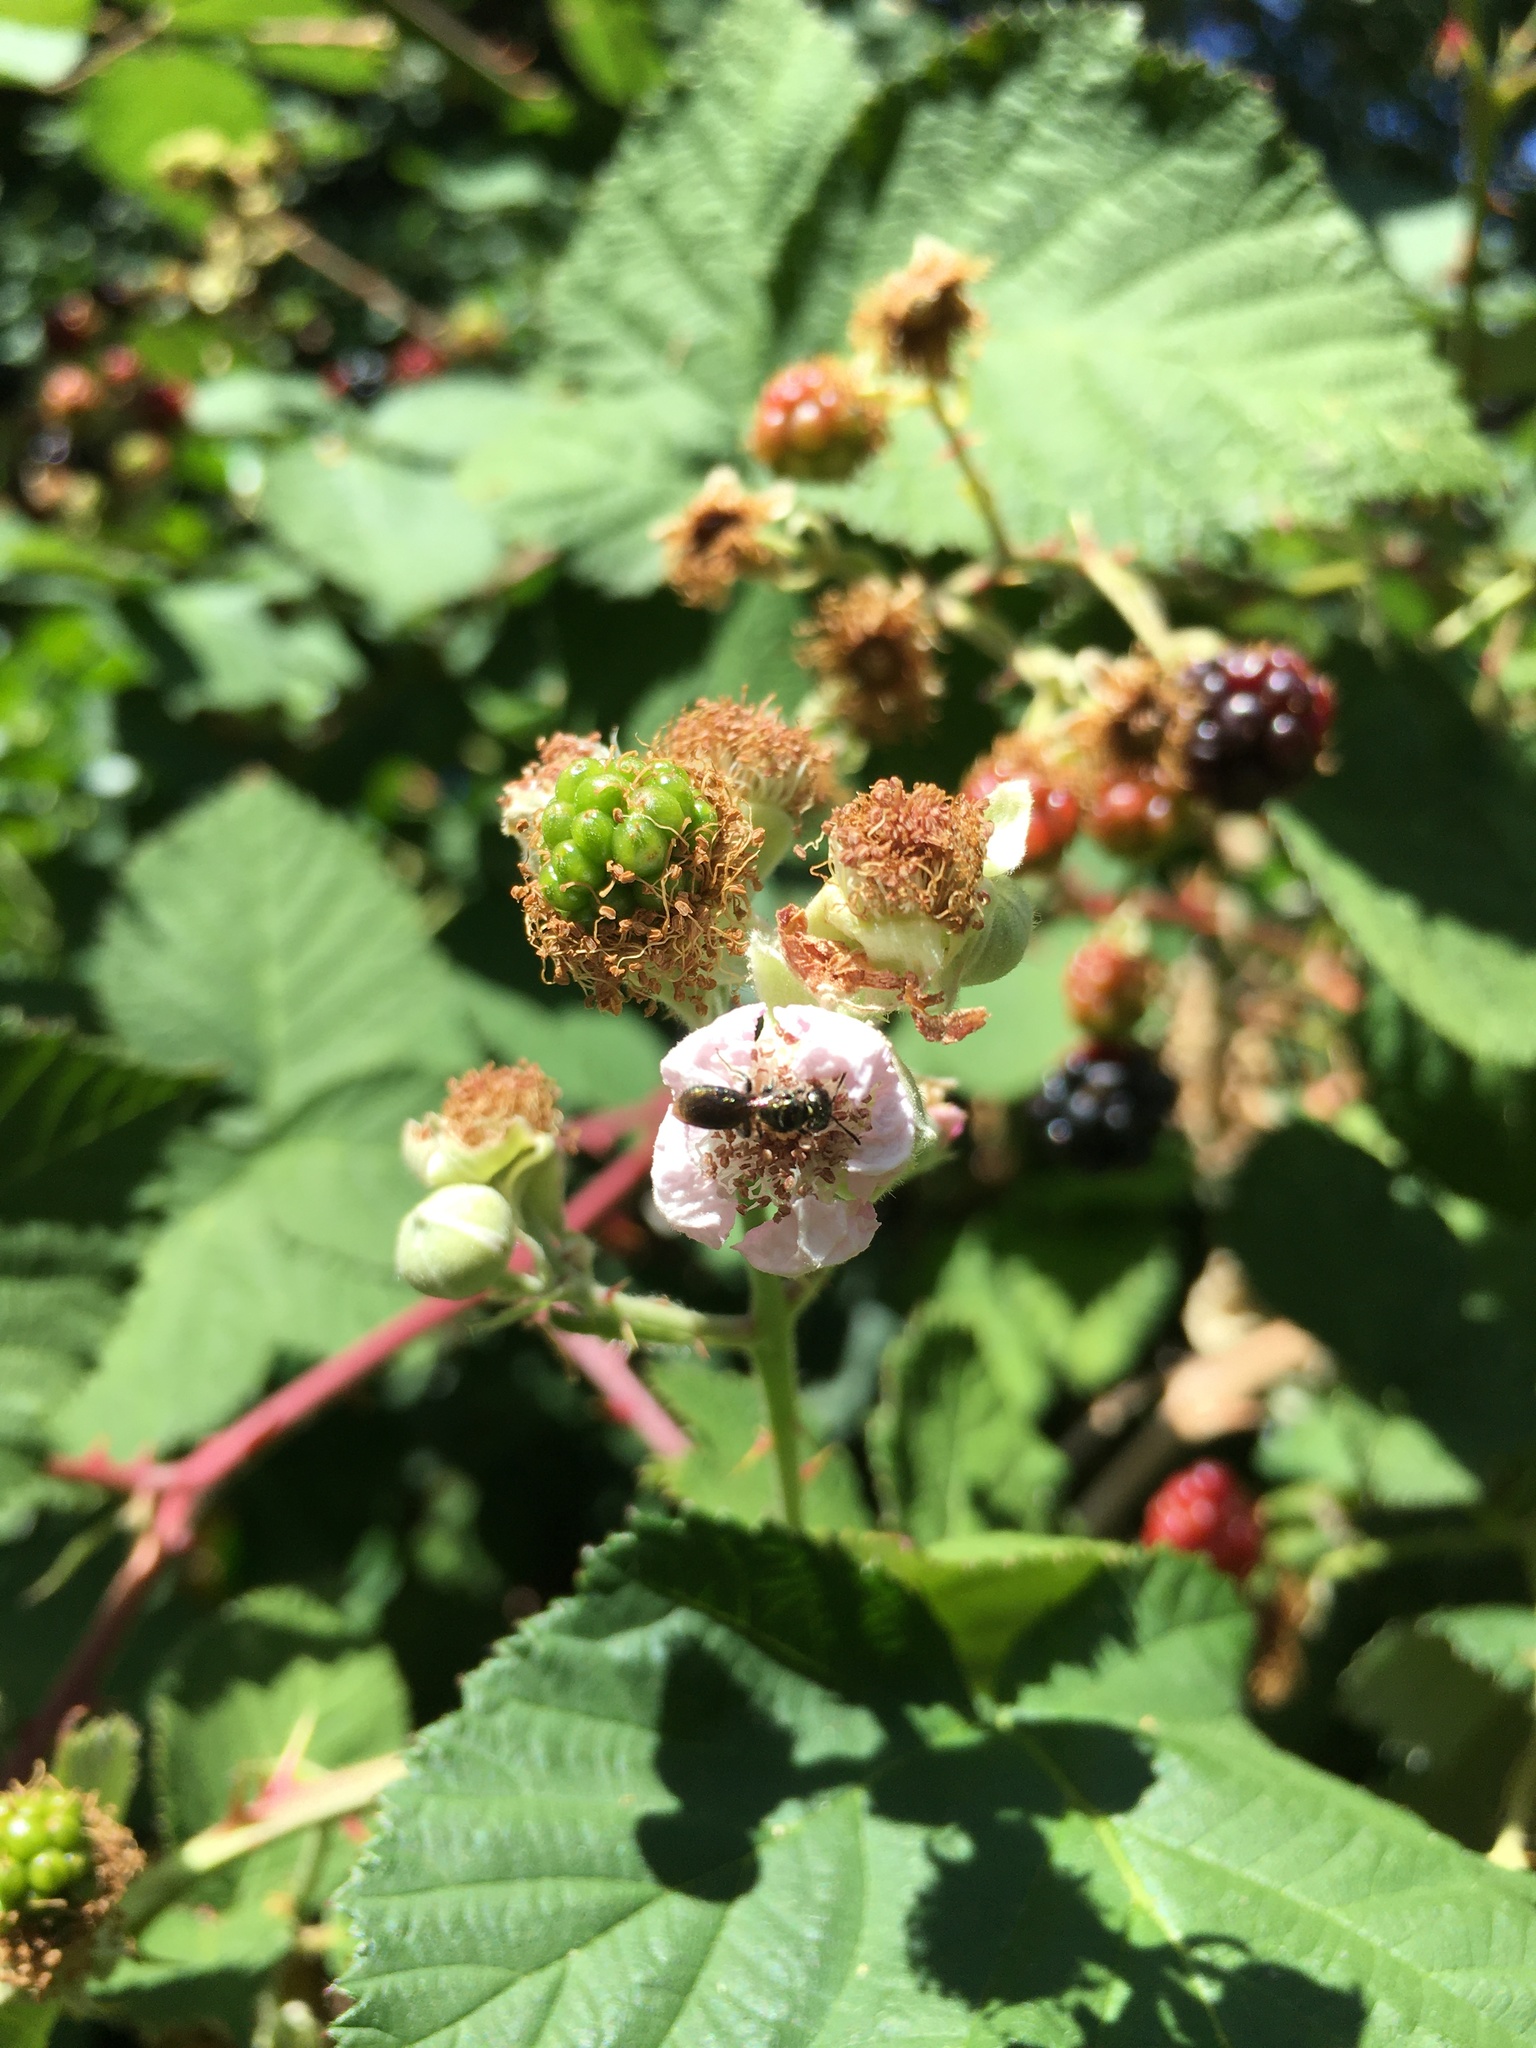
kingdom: Plantae
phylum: Tracheophyta
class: Magnoliopsida
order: Rosales
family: Rosaceae
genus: Rubus
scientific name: Rubus armeniacus
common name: Himalayan blackberry
